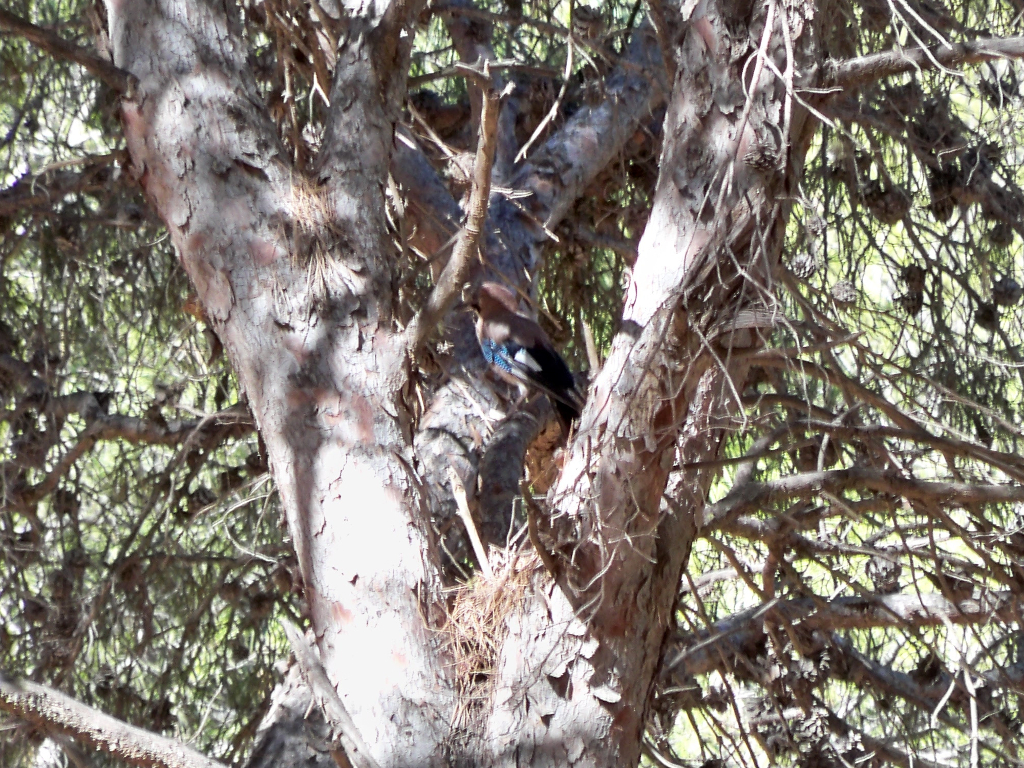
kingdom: Animalia
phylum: Chordata
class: Aves
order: Passeriformes
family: Corvidae
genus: Garrulus
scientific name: Garrulus glandarius
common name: Eurasian jay
